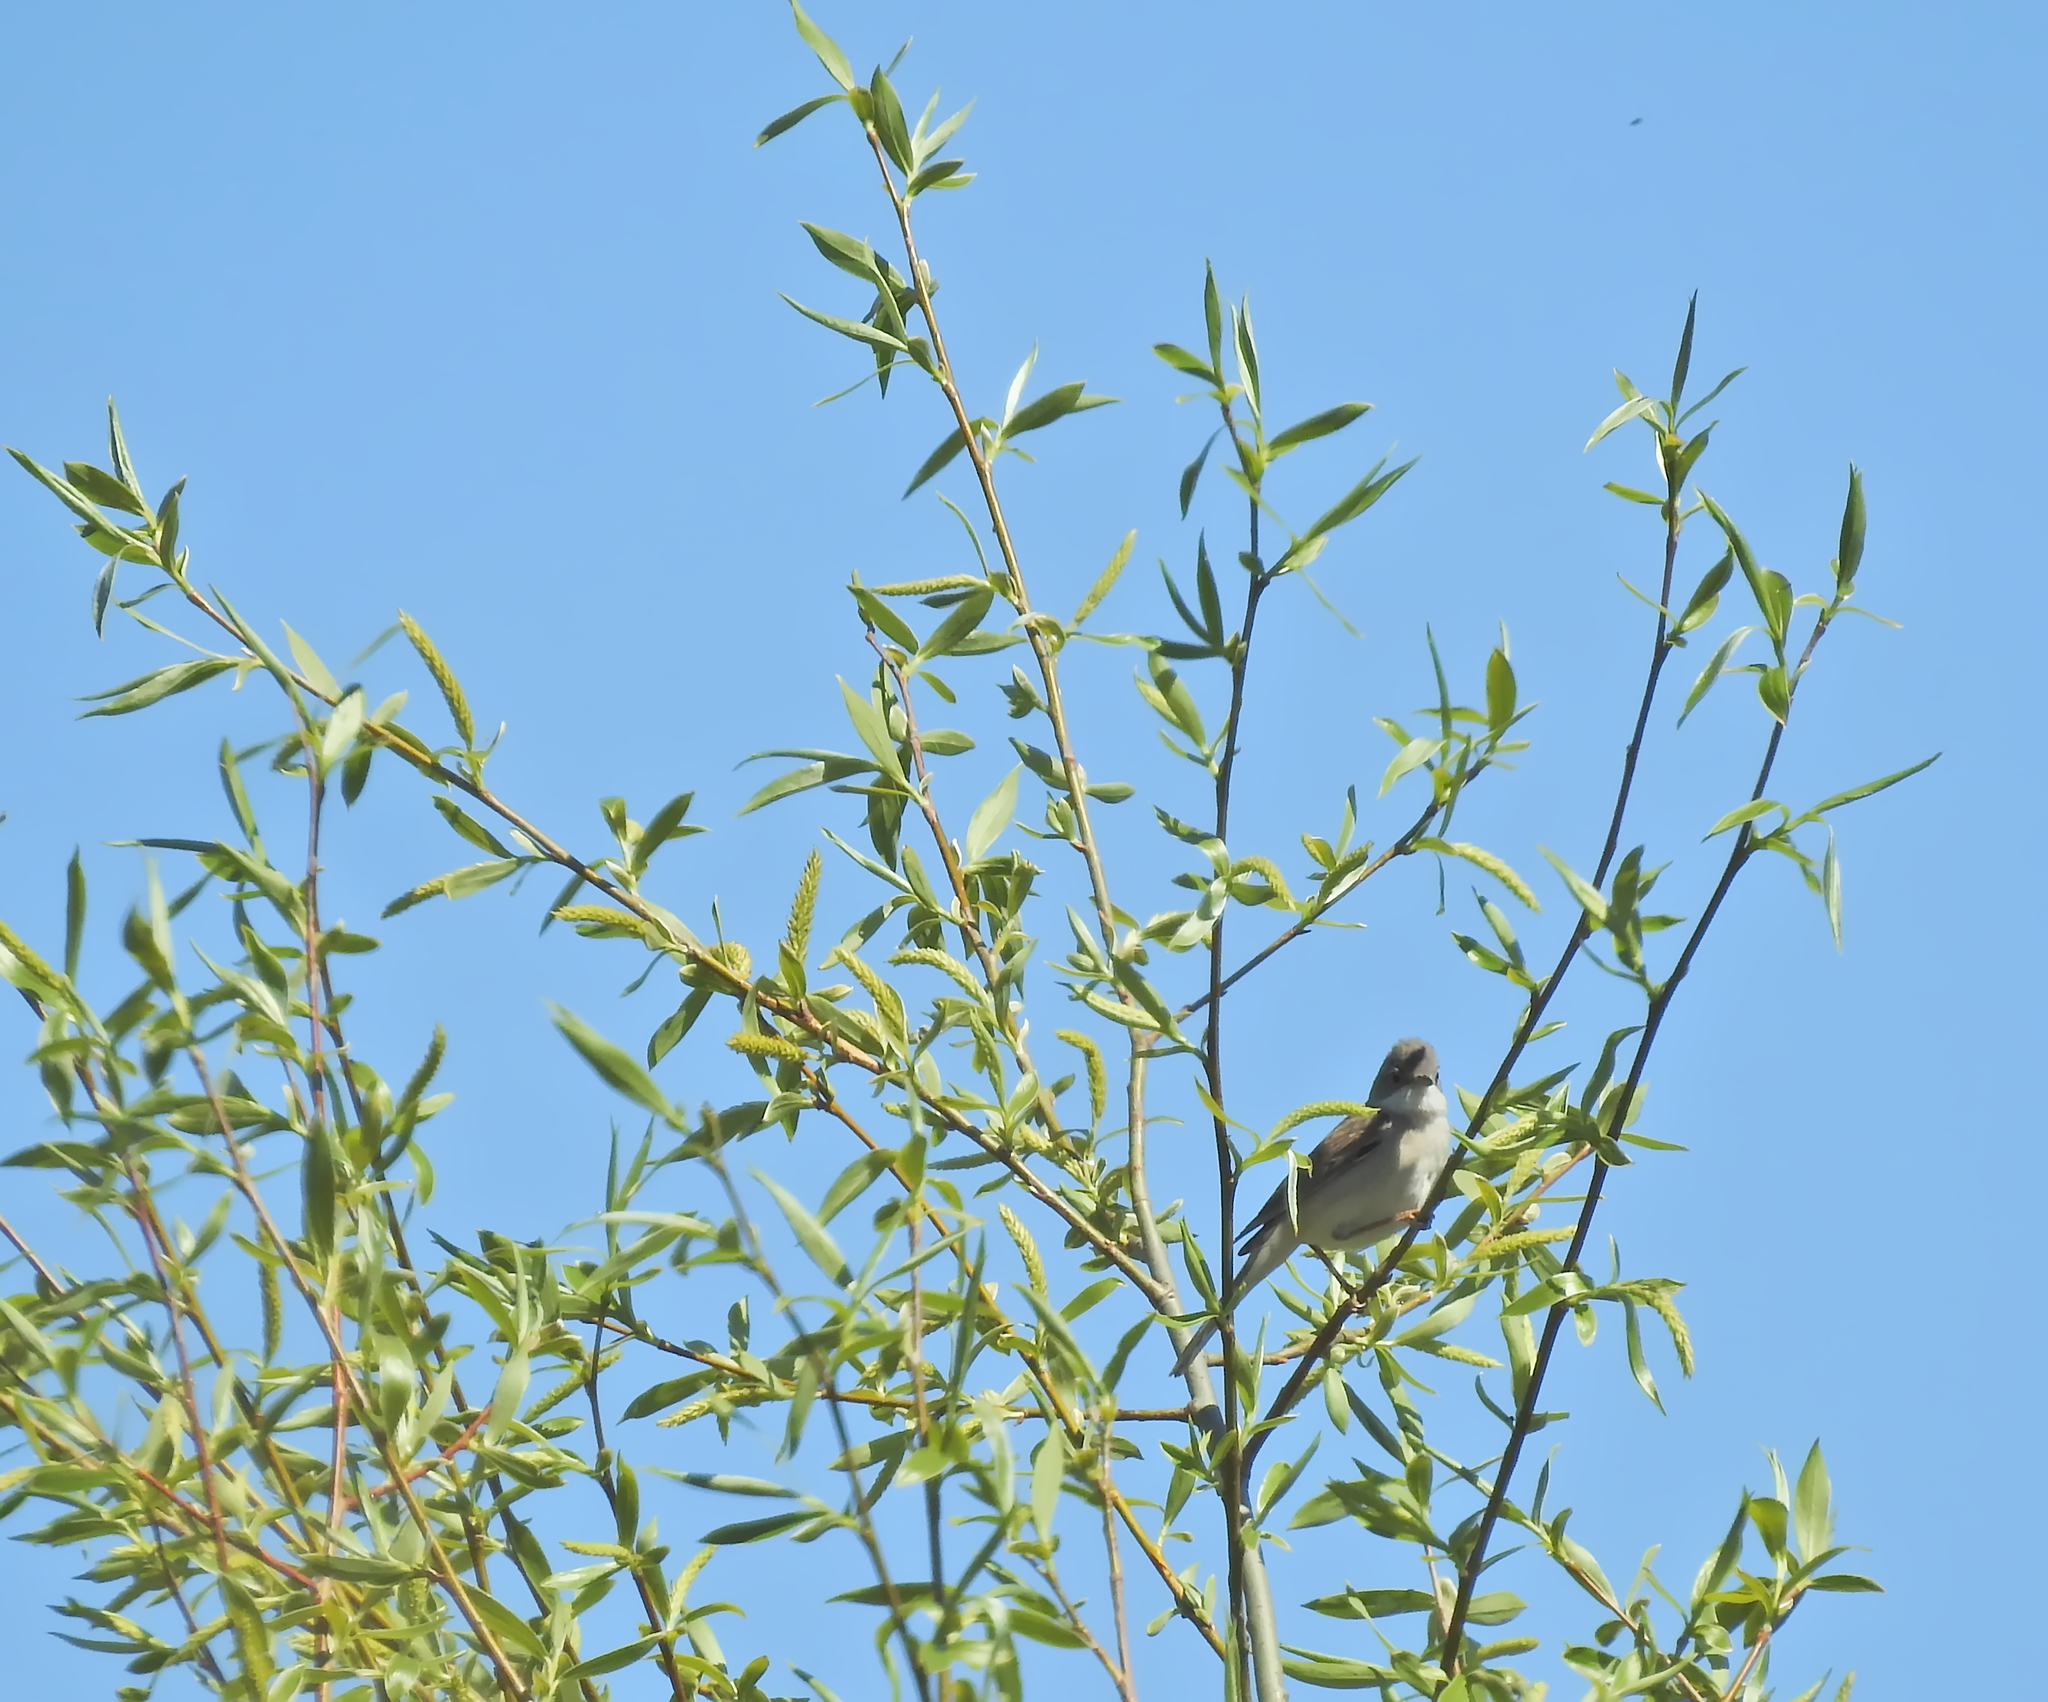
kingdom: Animalia
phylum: Chordata
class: Aves
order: Passeriformes
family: Sylviidae
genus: Sylvia
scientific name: Sylvia communis
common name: Common whitethroat
